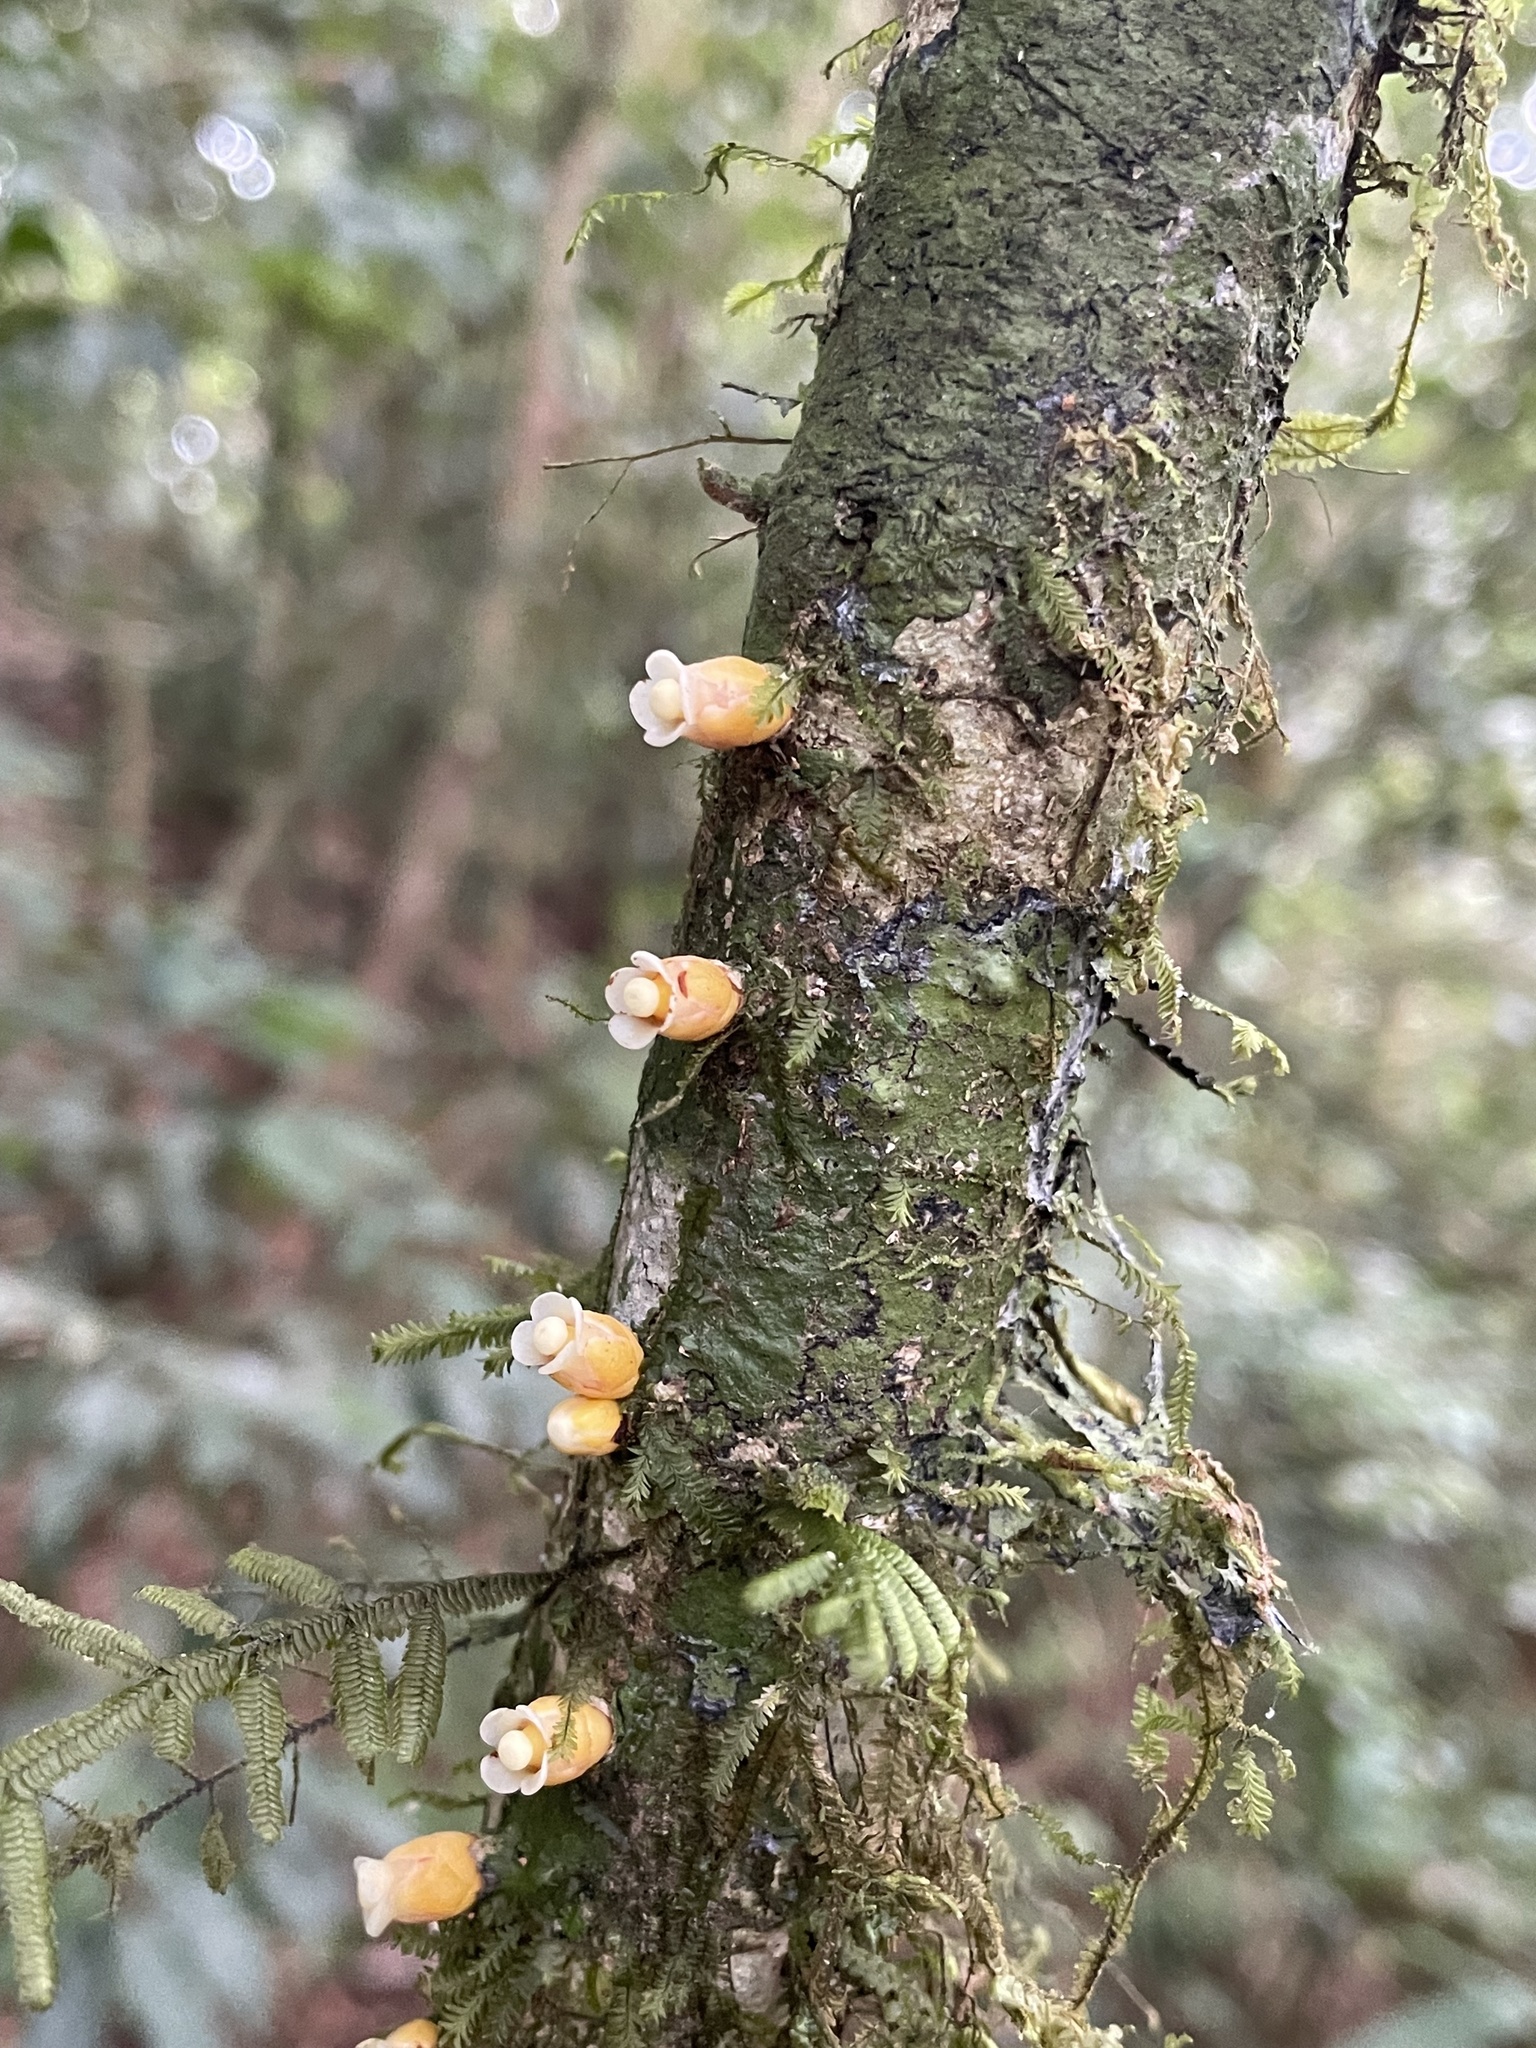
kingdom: Plantae
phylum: Tracheophyta
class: Magnoliopsida
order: Cucurbitales
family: Apodanthaceae
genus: Apodanthes
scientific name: Apodanthes caseariae
